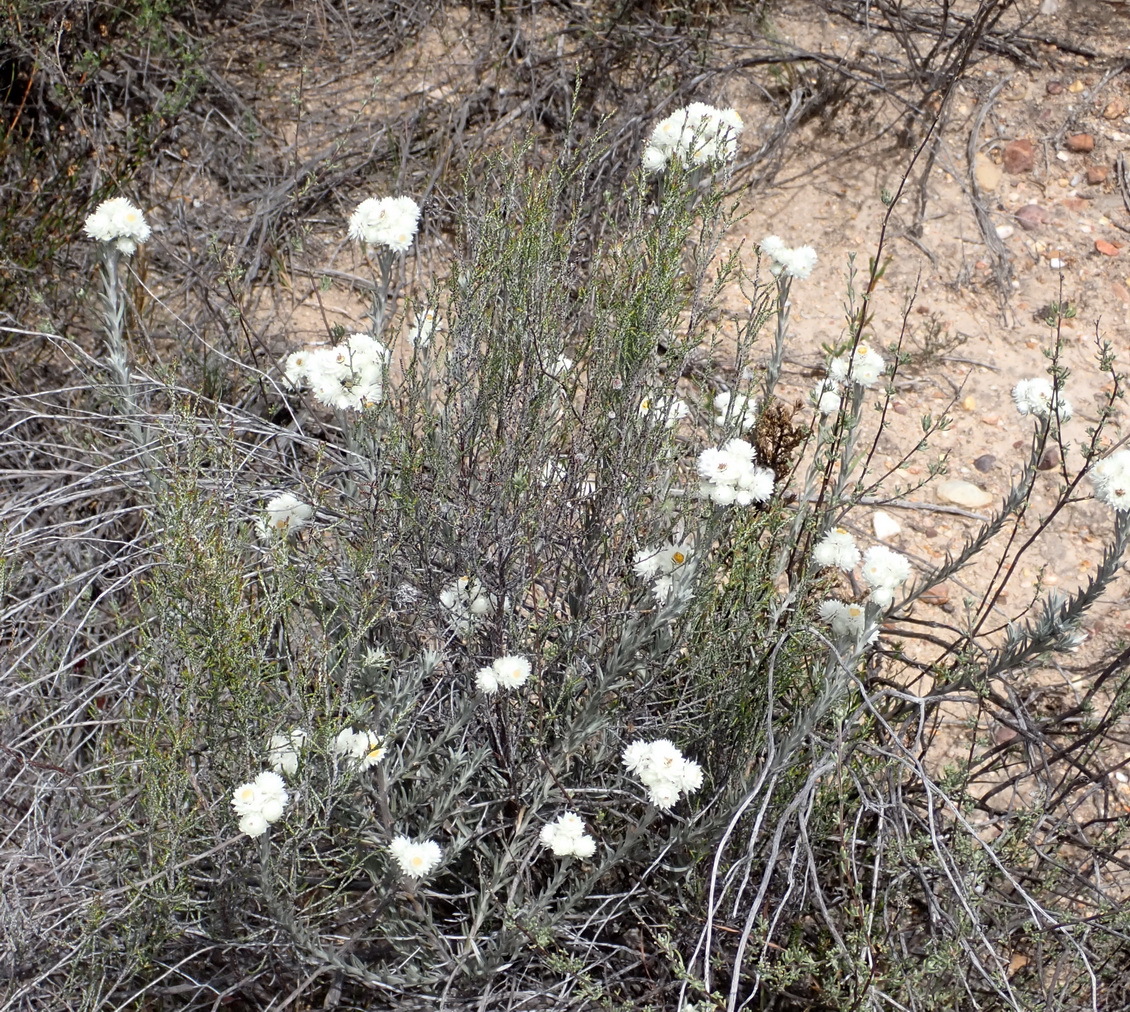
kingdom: Plantae
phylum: Tracheophyta
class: Magnoliopsida
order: Asterales
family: Asteraceae
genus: Achyranthemum
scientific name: Achyranthemum paniculatum
